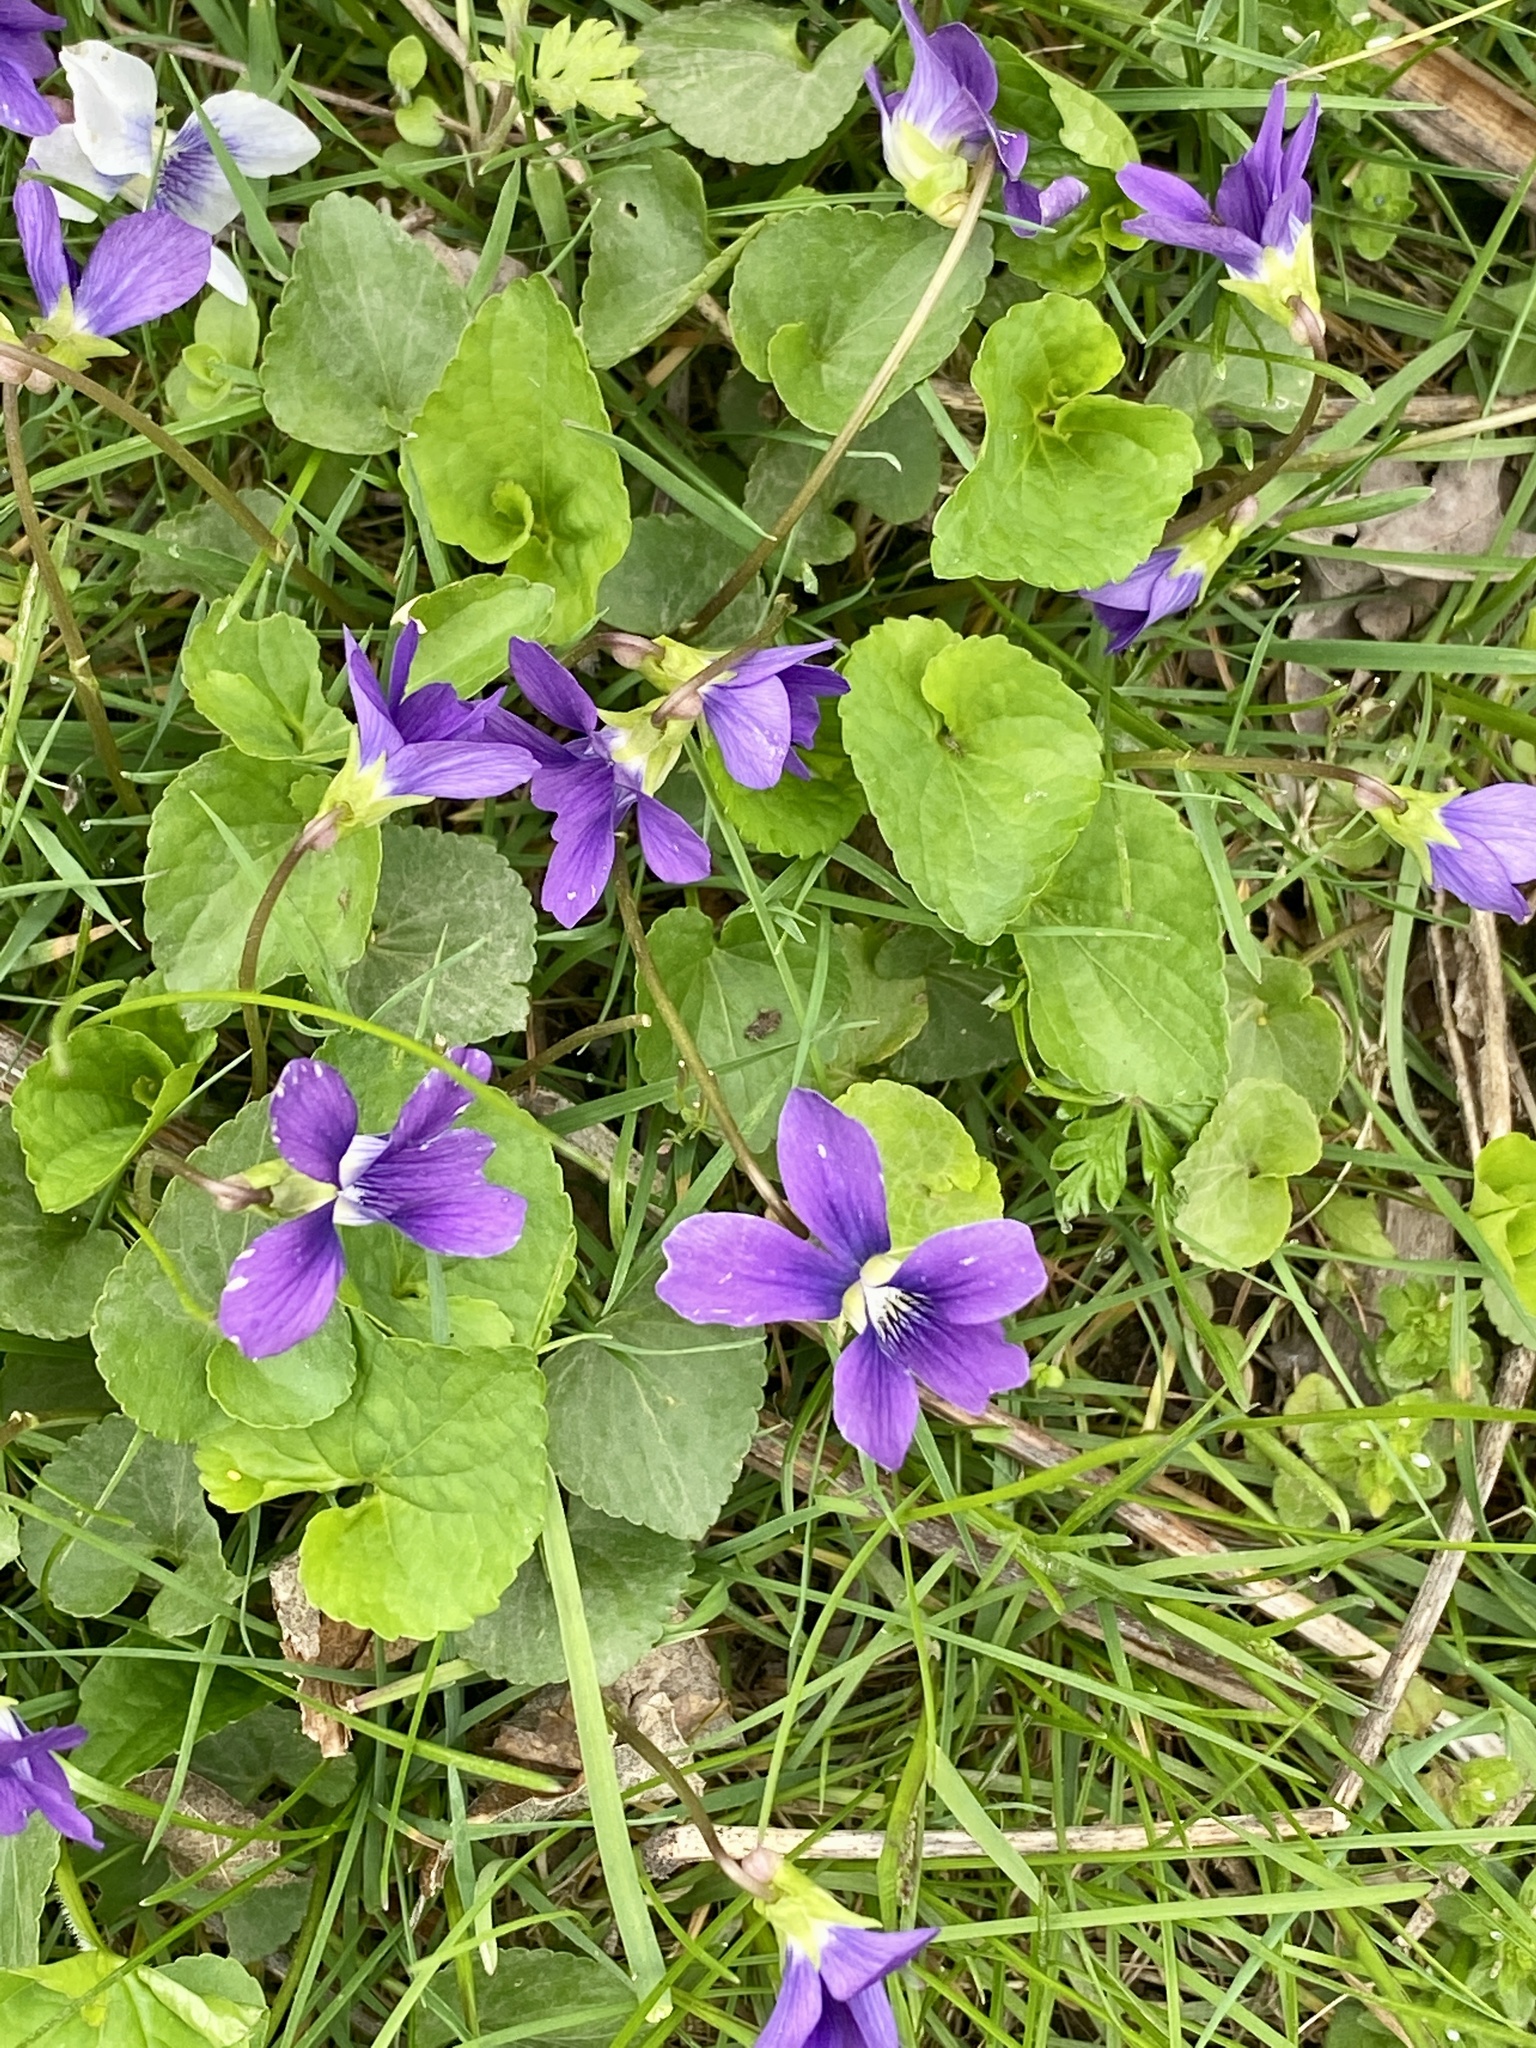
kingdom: Plantae
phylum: Tracheophyta
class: Magnoliopsida
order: Malpighiales
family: Violaceae
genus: Viola
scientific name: Viola sororia
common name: Dooryard violet
